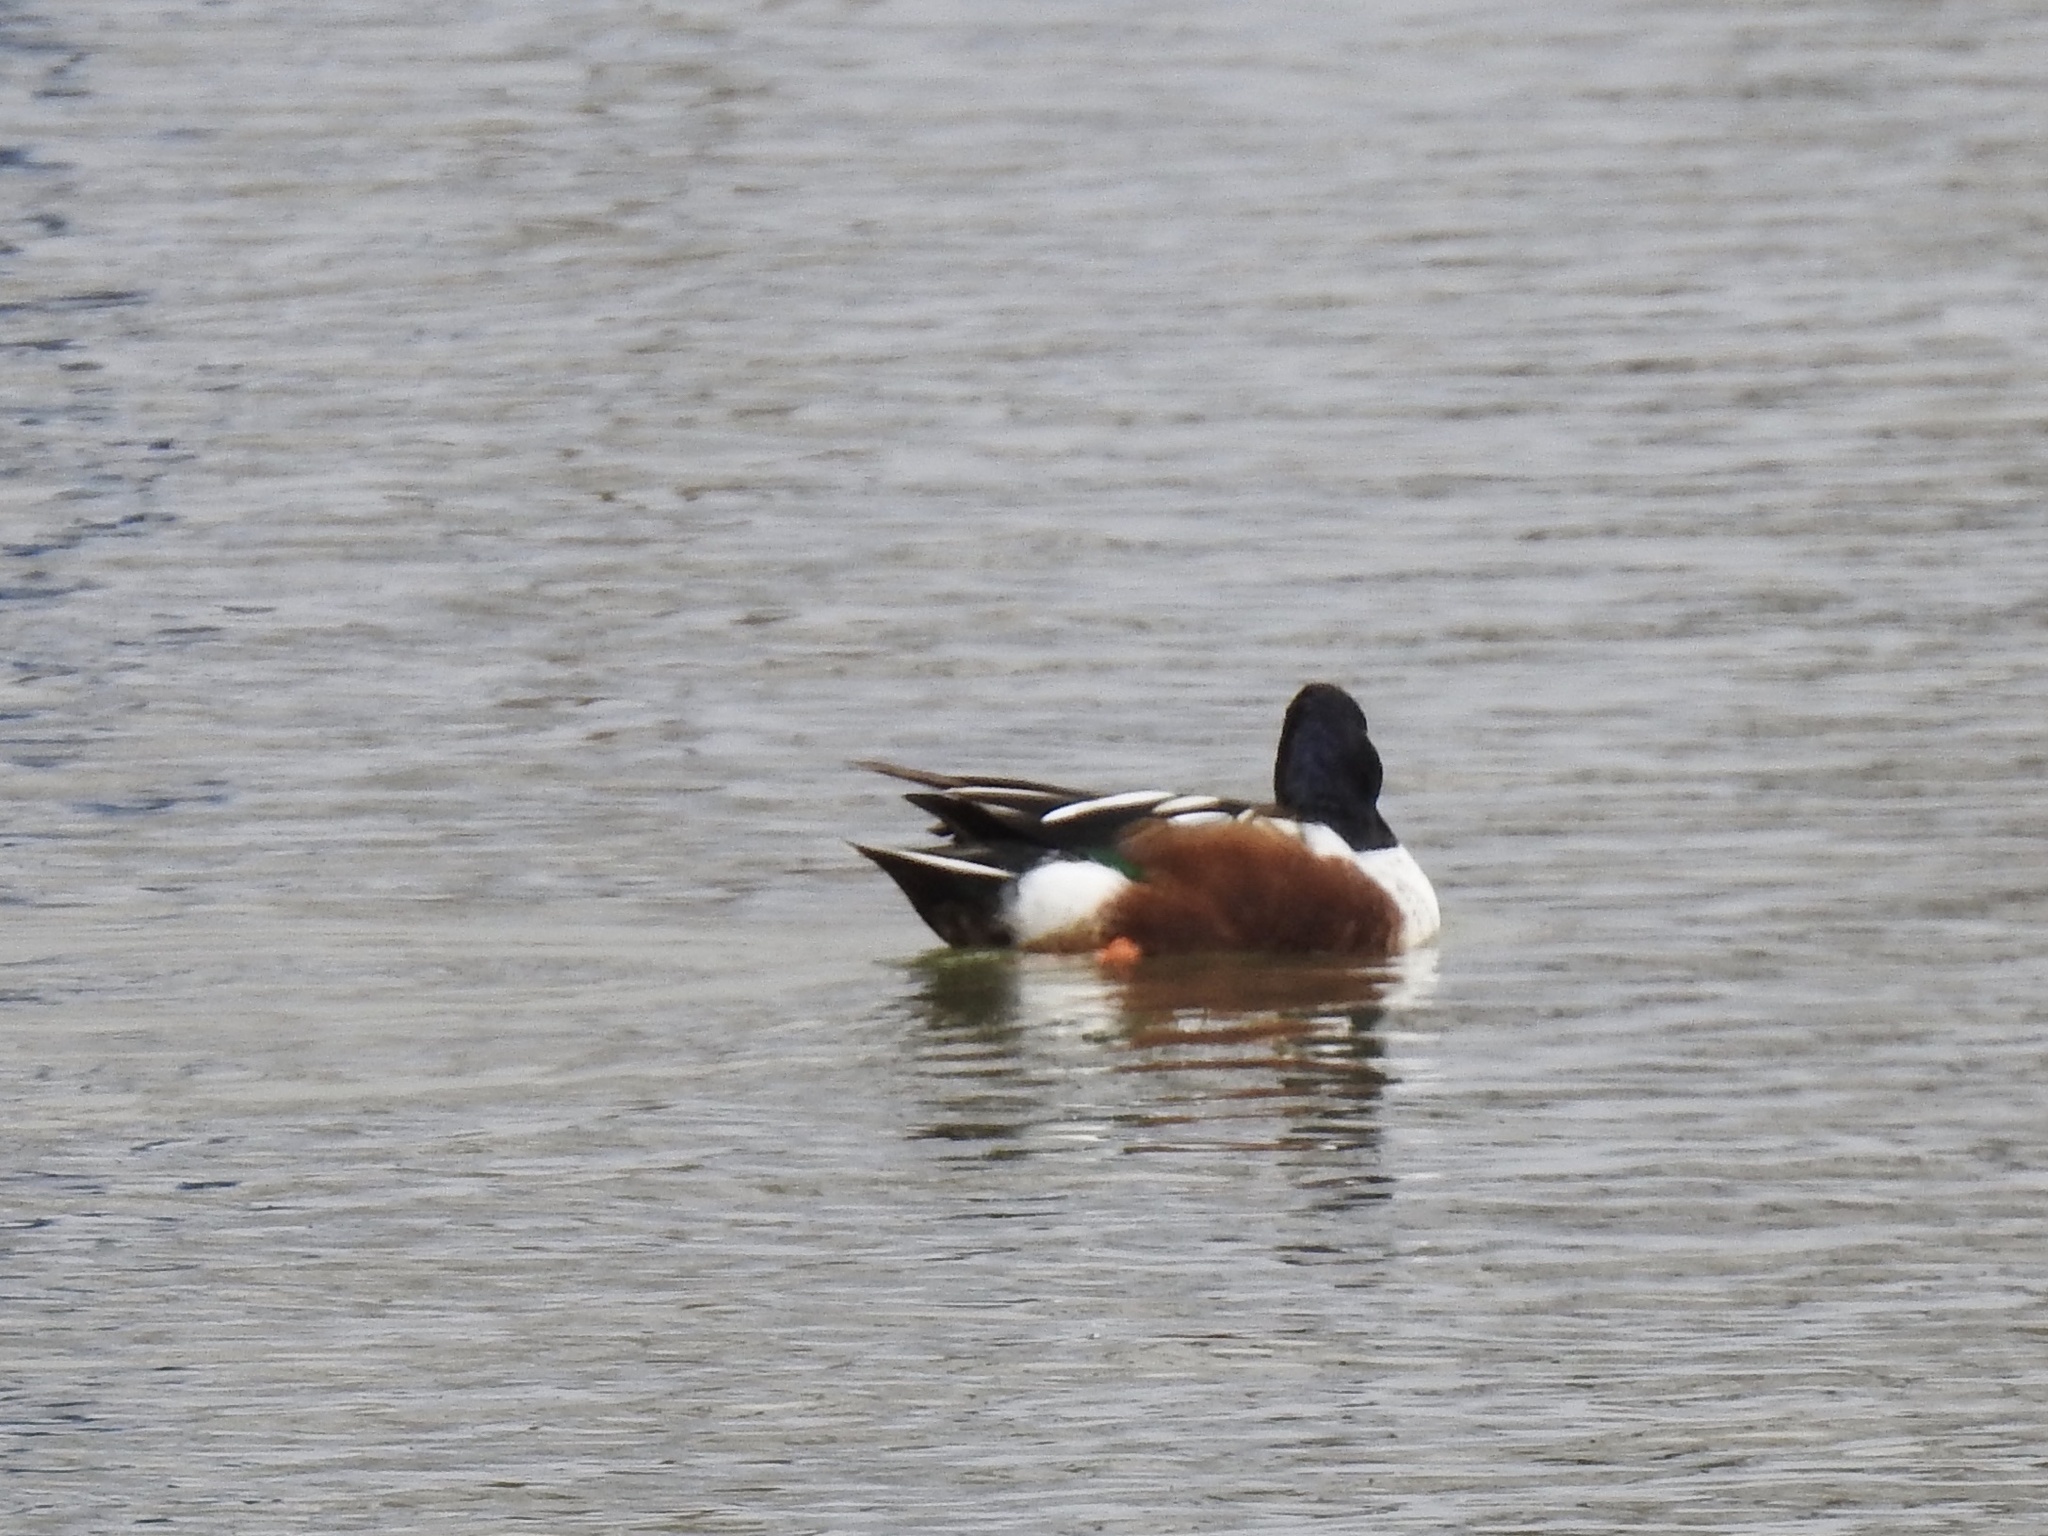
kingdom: Animalia
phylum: Chordata
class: Aves
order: Anseriformes
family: Anatidae
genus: Spatula
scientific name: Spatula clypeata
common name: Northern shoveler
